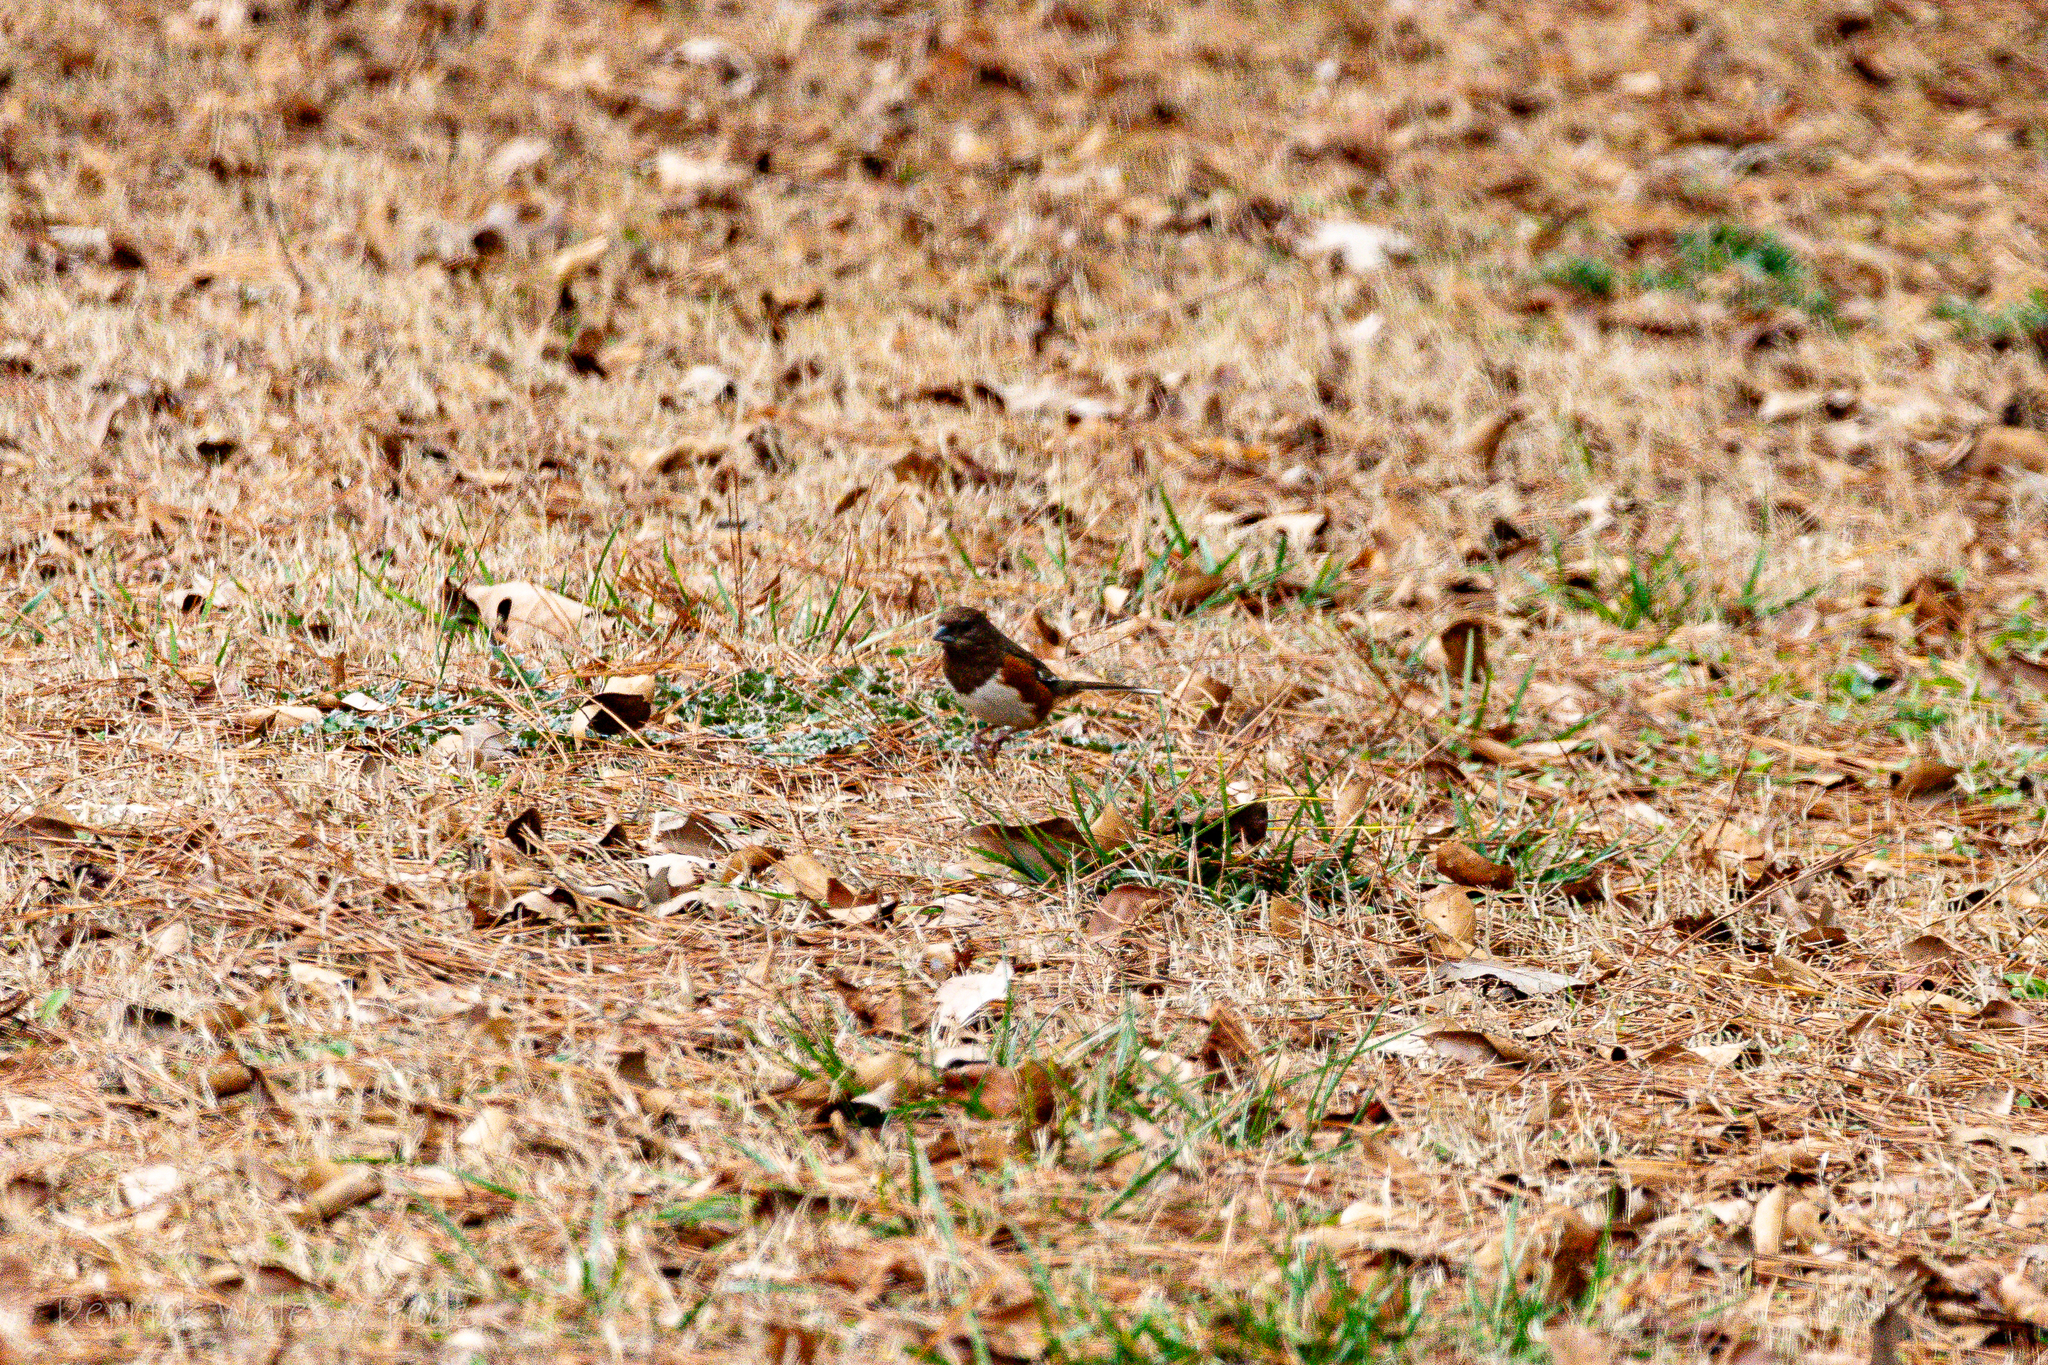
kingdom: Animalia
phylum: Chordata
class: Aves
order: Passeriformes
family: Passerellidae
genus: Pipilo
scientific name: Pipilo erythrophthalmus
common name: Eastern towhee
